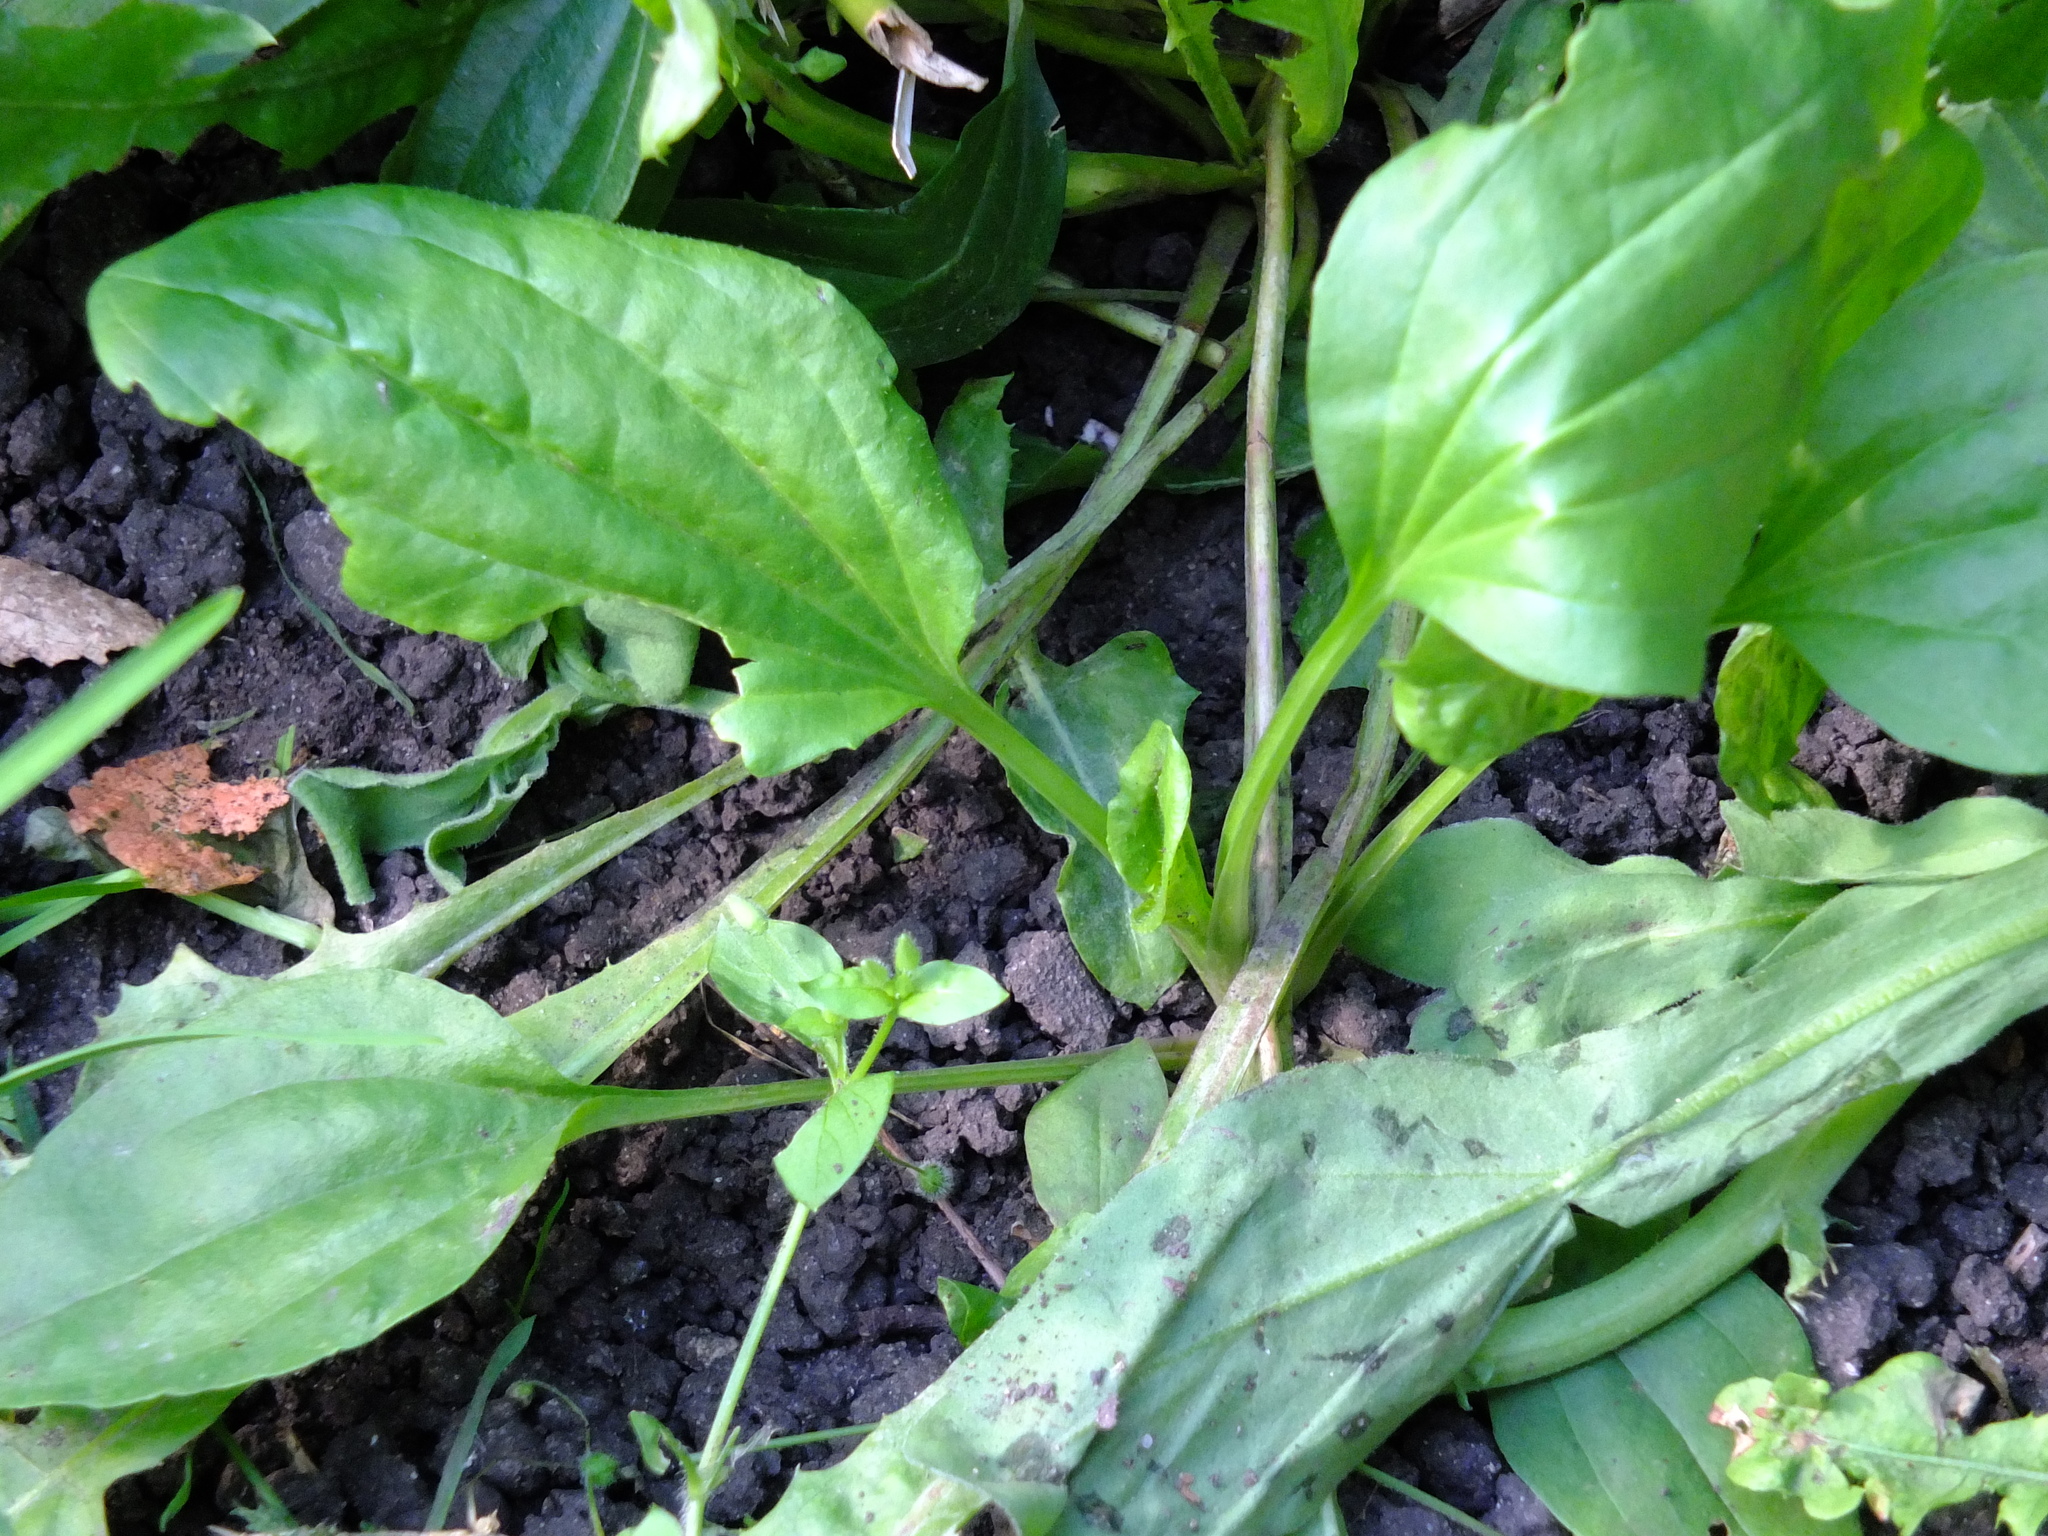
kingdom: Plantae
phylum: Tracheophyta
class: Magnoliopsida
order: Lamiales
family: Plantaginaceae
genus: Plantago
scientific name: Plantago major
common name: Common plantain
